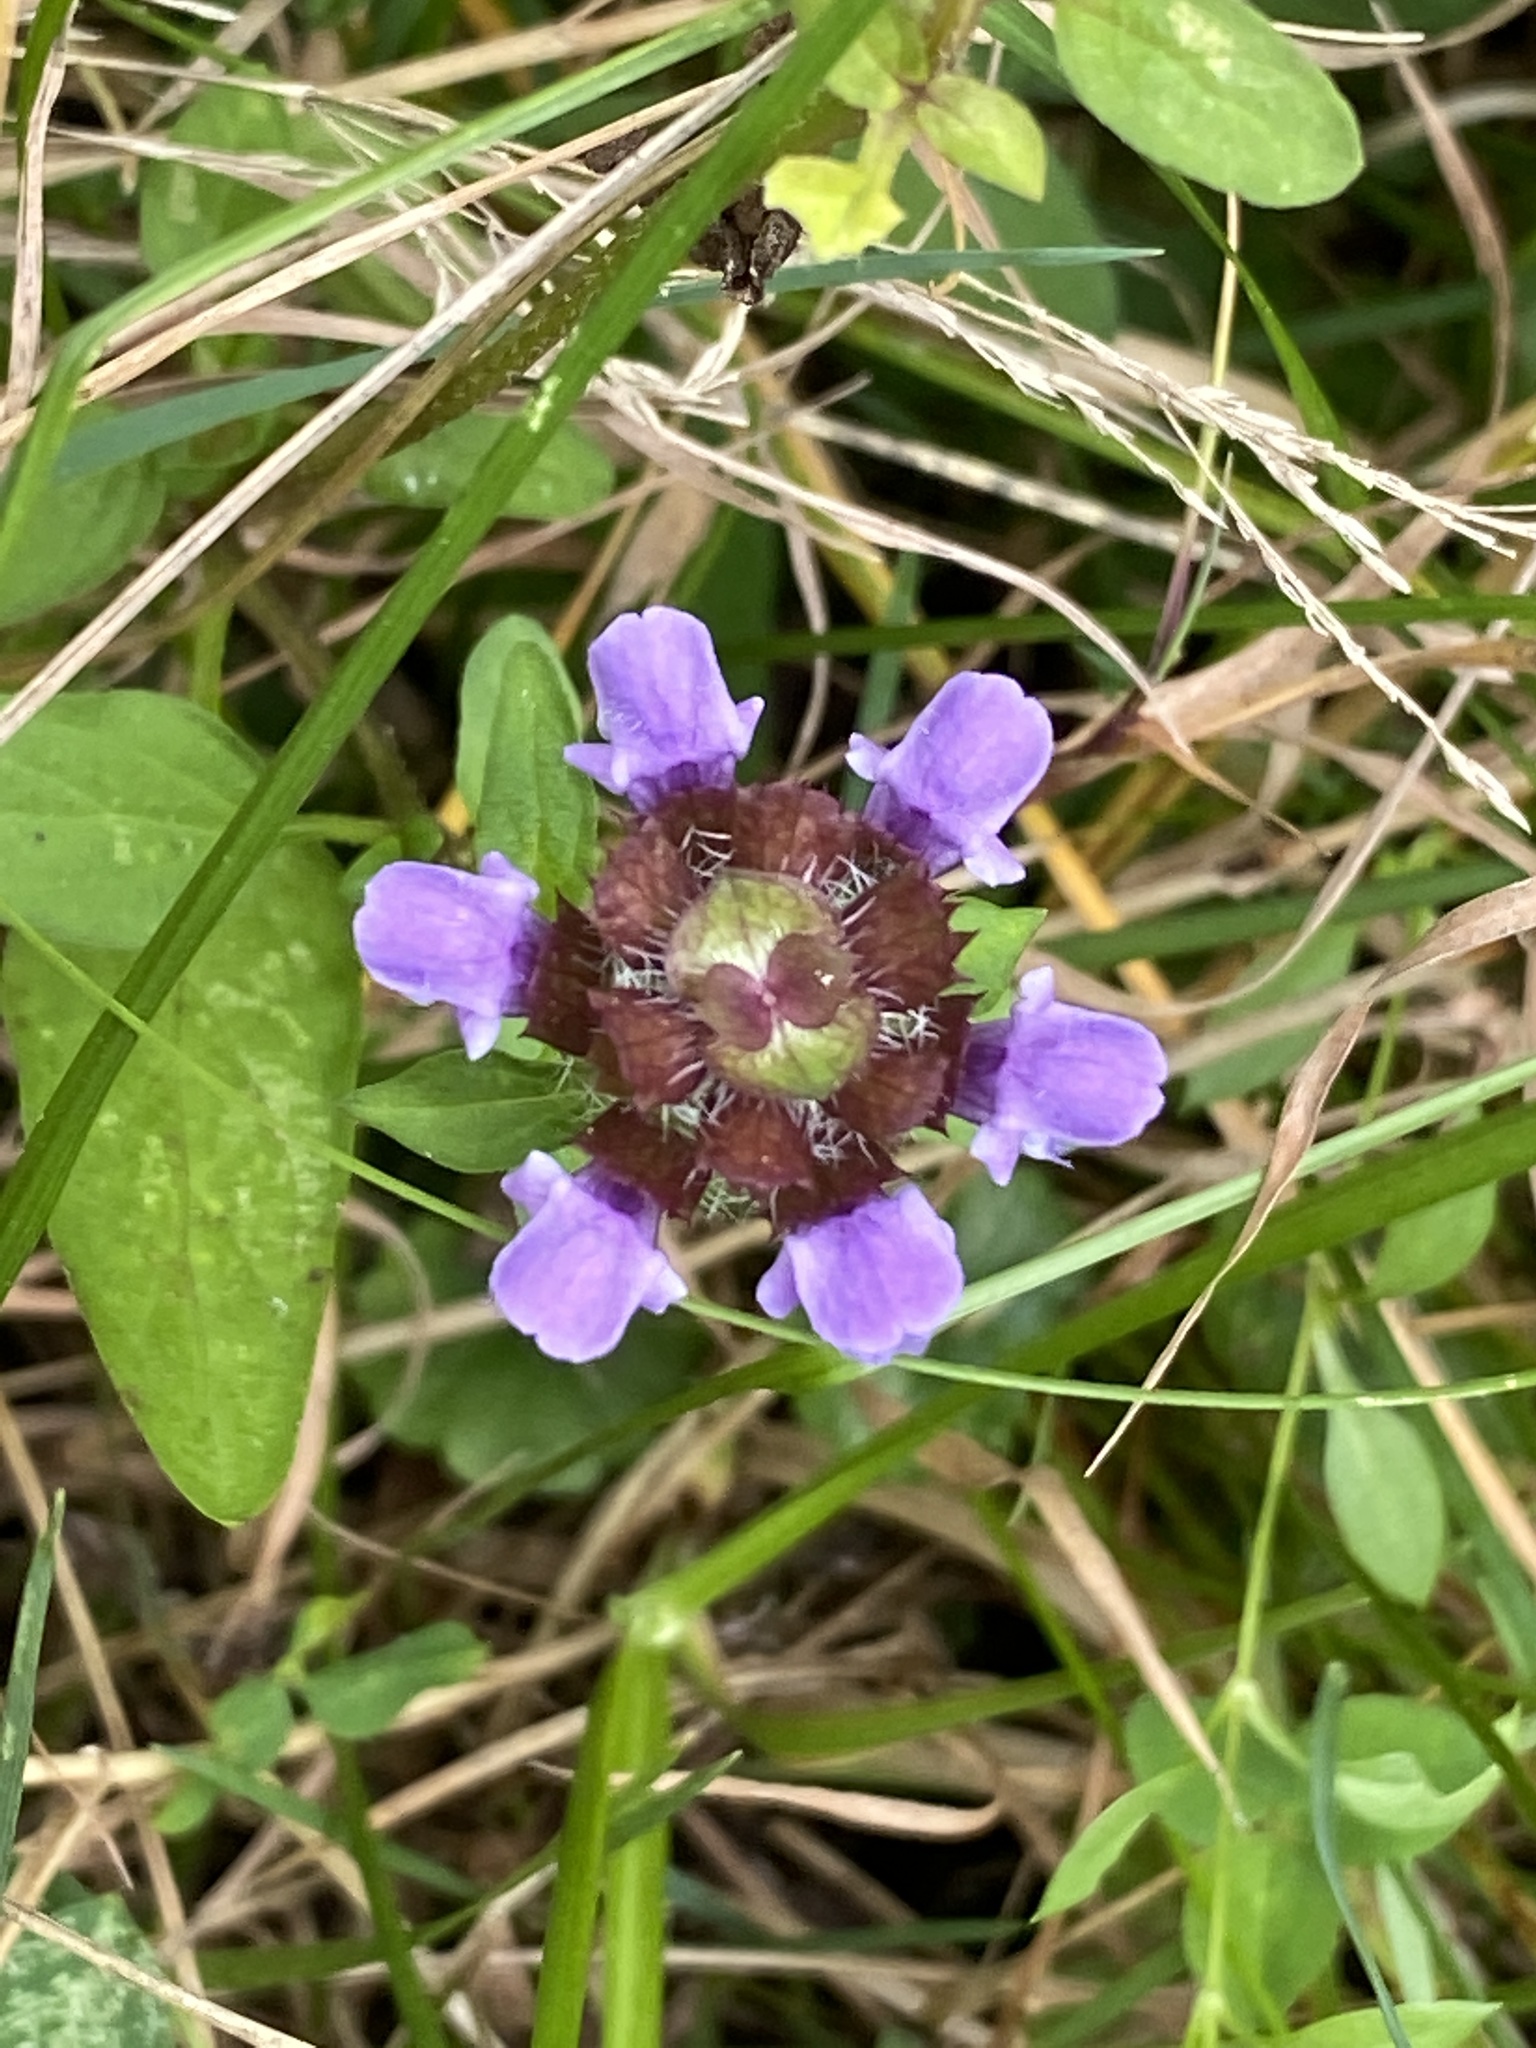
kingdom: Plantae
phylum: Tracheophyta
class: Magnoliopsida
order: Lamiales
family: Lamiaceae
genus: Prunella
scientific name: Prunella vulgaris
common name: Heal-all
